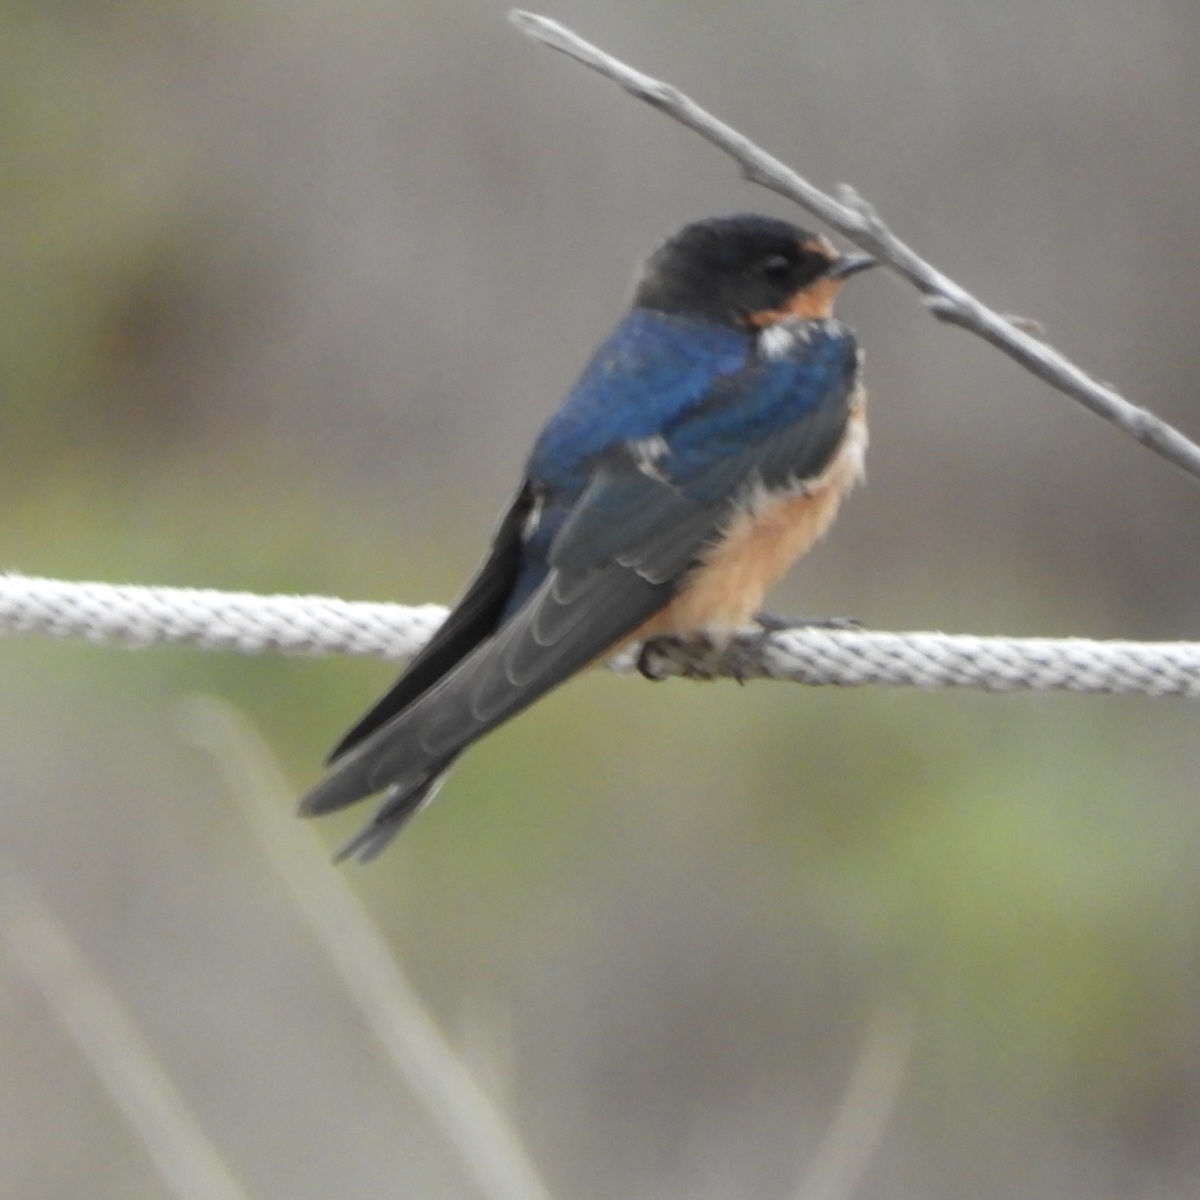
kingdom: Animalia
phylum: Chordata
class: Aves
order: Passeriformes
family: Hirundinidae
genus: Hirundo
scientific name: Hirundo rustica
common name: Barn swallow
